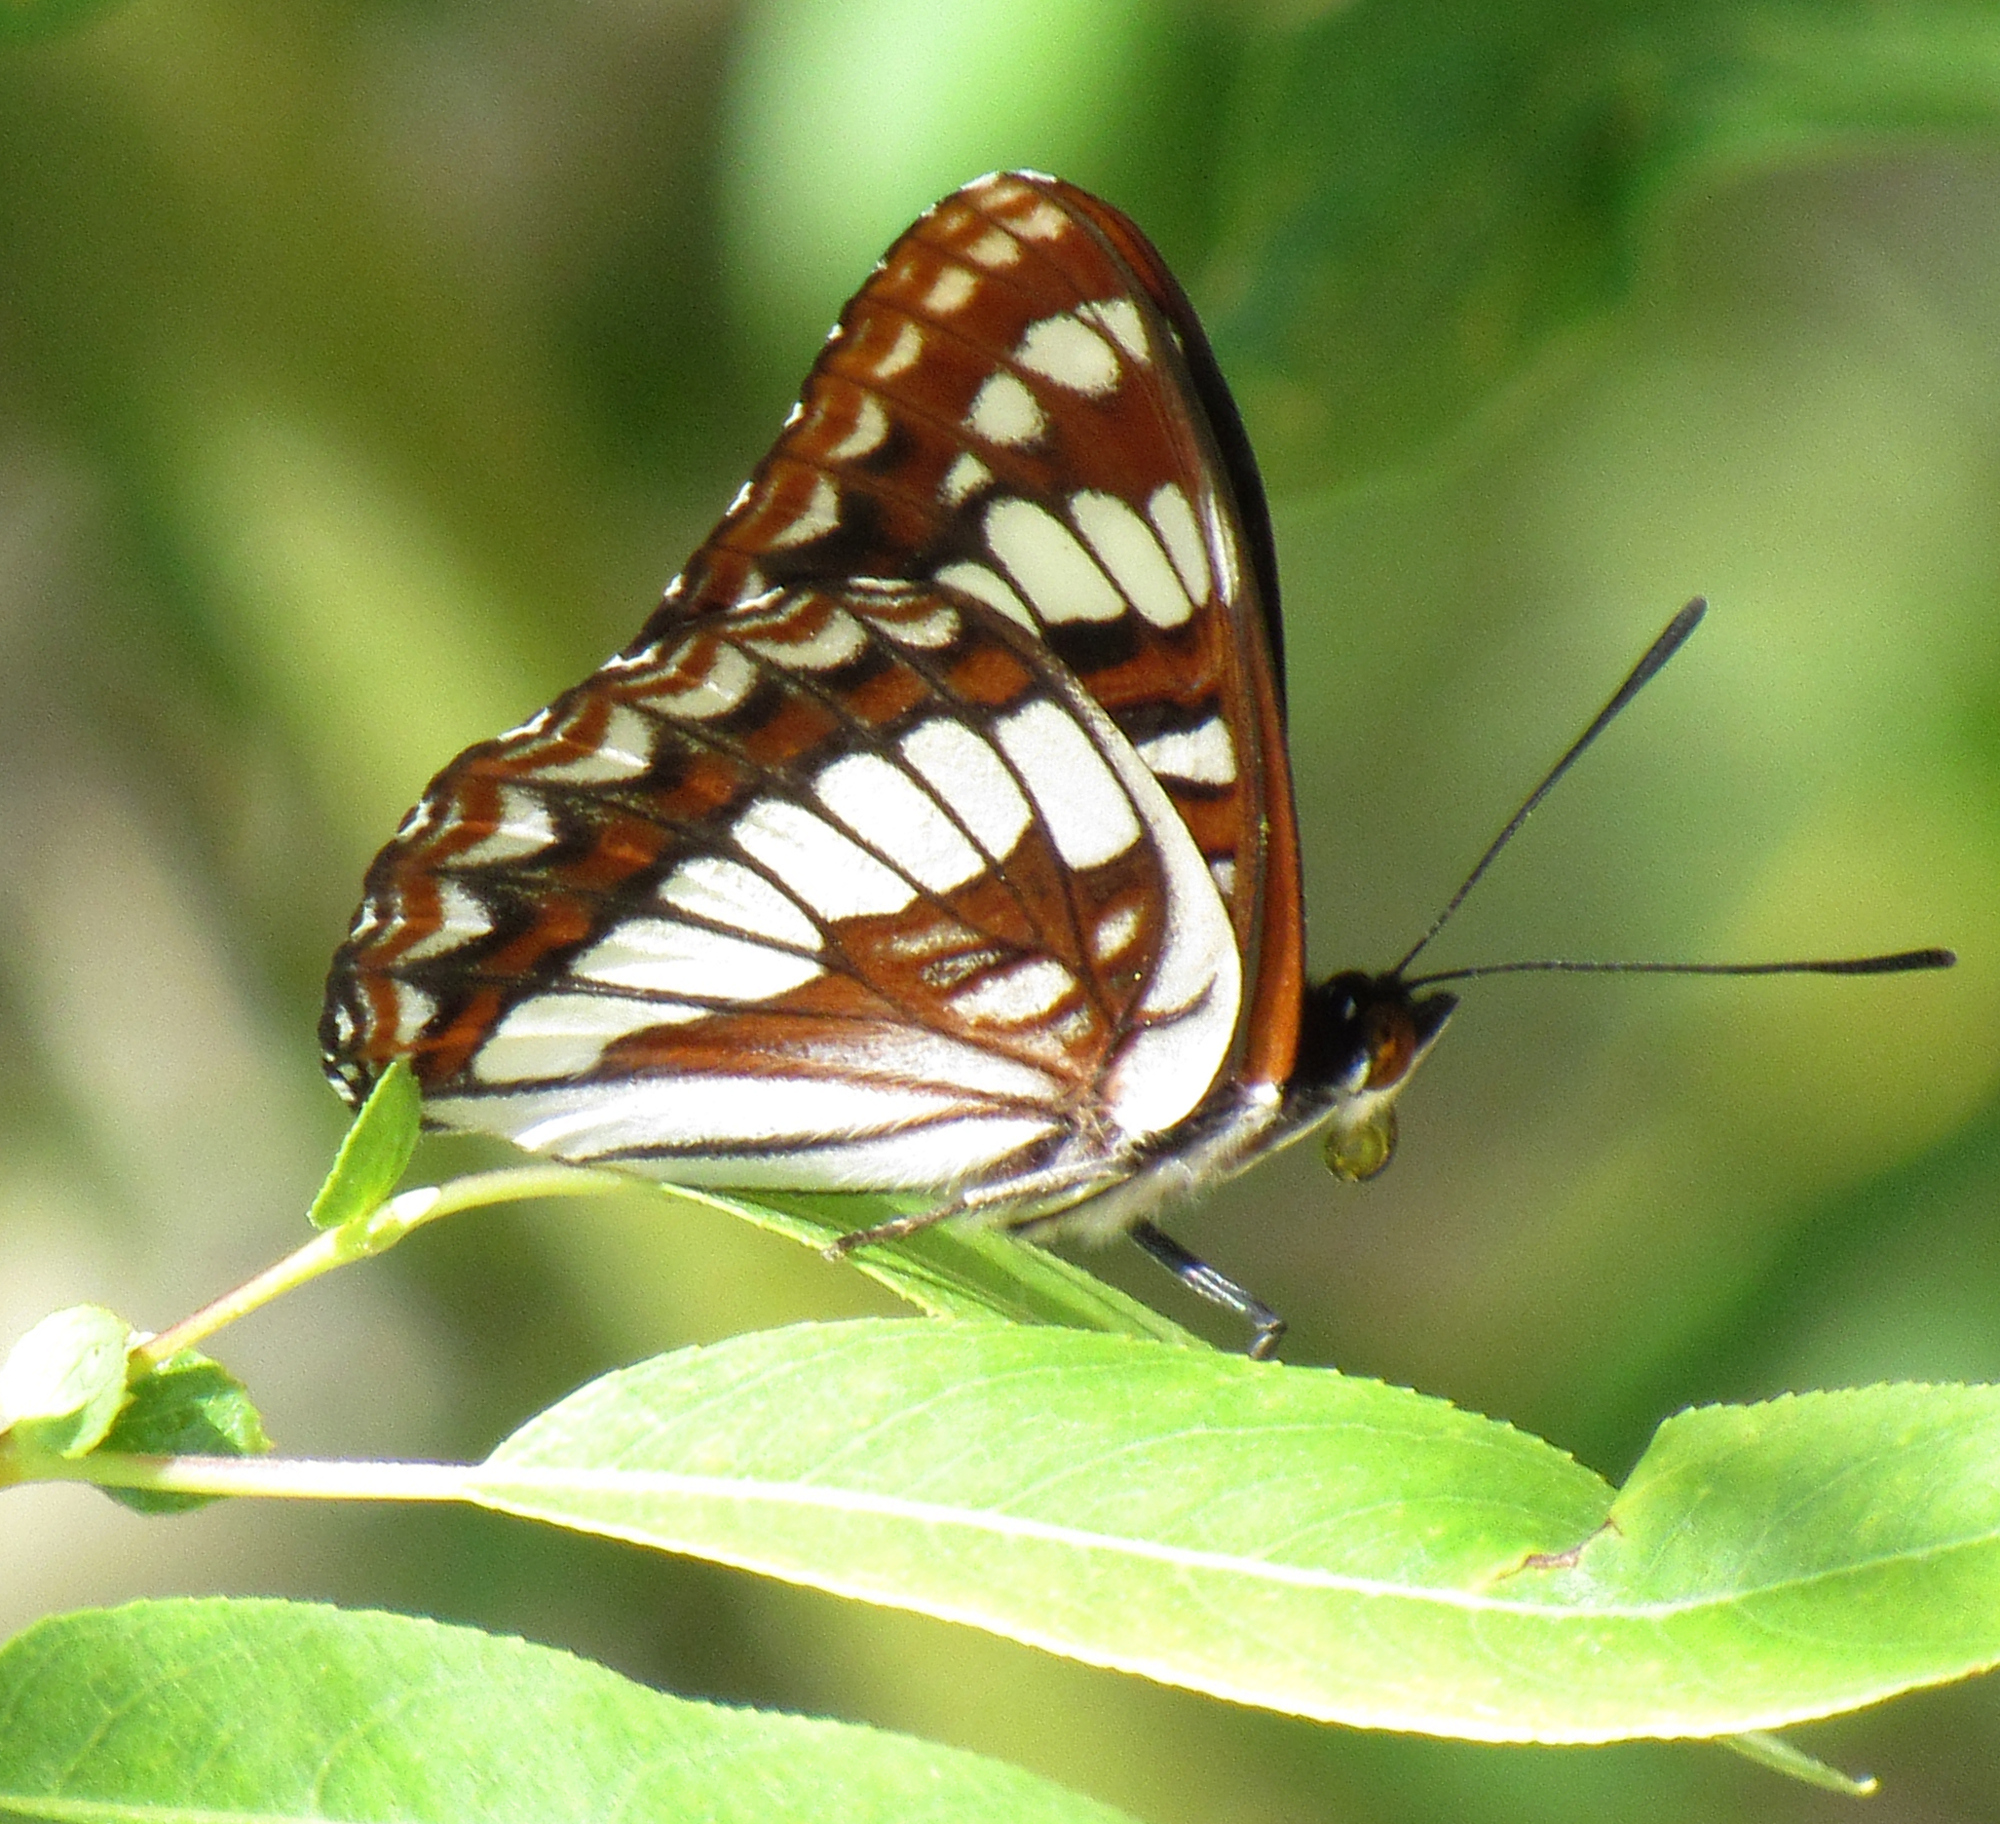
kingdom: Animalia
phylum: Arthropoda
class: Insecta
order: Lepidoptera
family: Nymphalidae
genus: Limenitis
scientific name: Limenitis lorquini
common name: Lorquin's admiral
